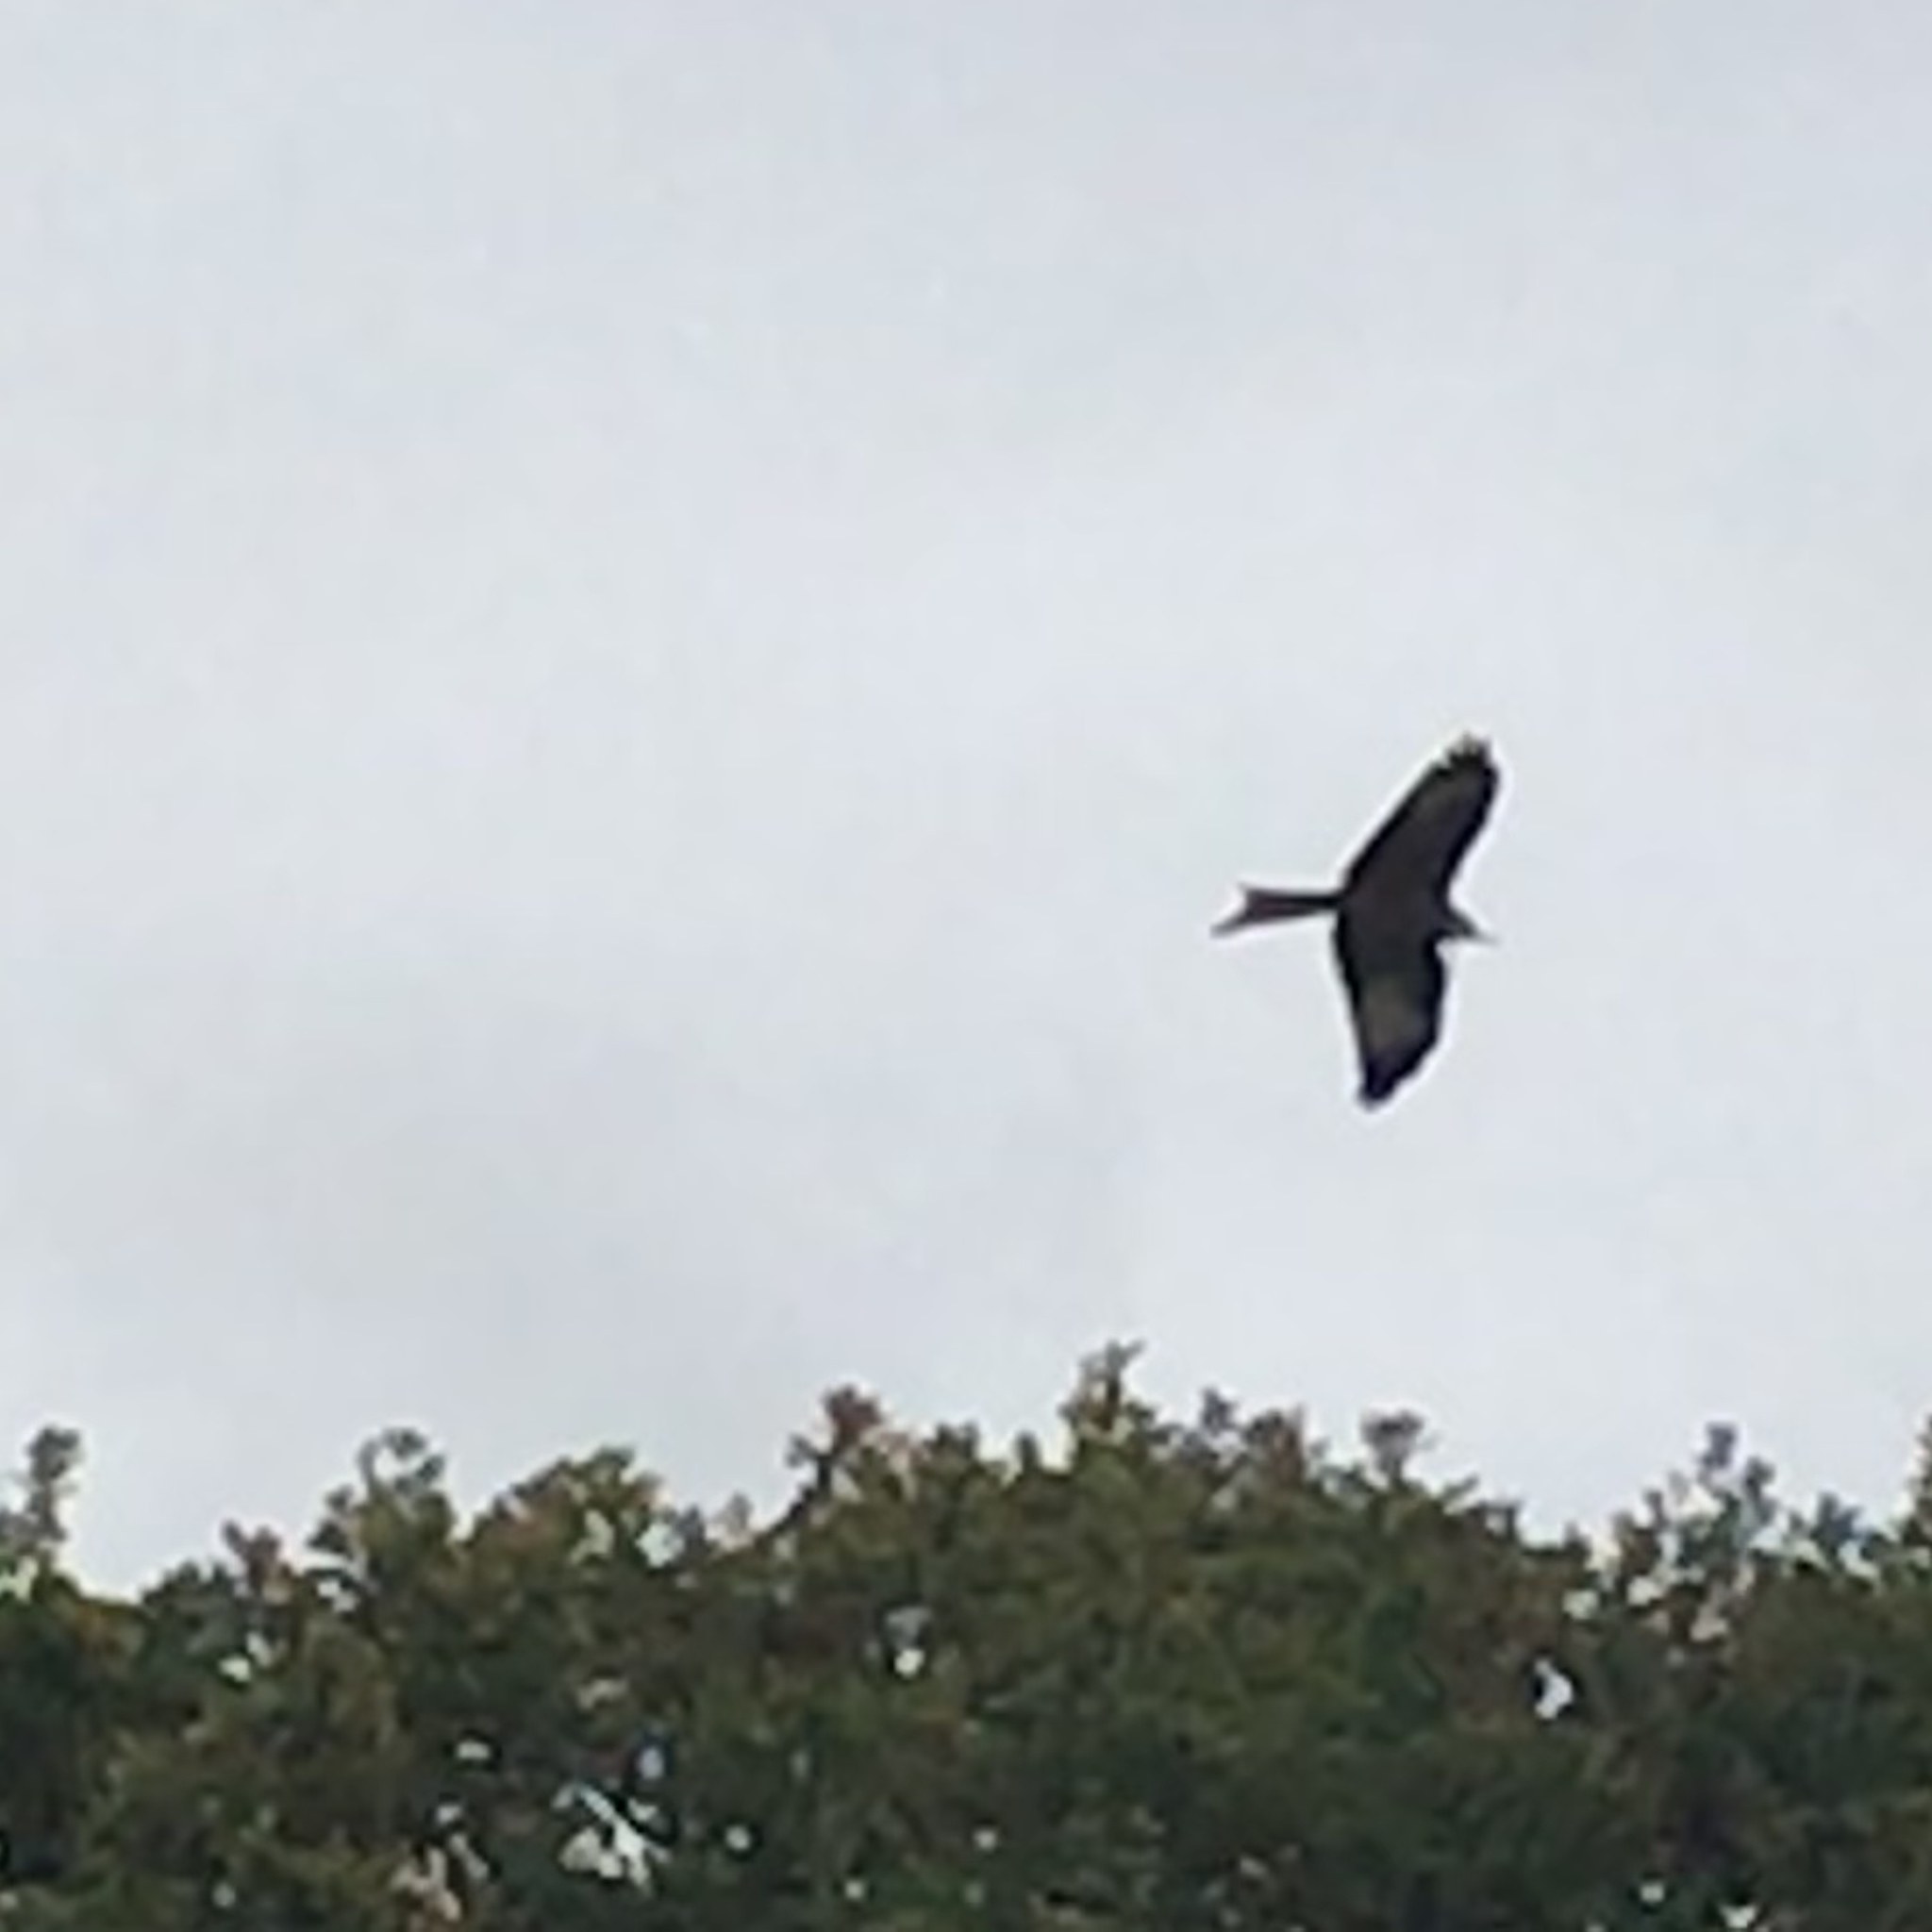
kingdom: Animalia
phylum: Chordata
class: Aves
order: Accipitriformes
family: Accipitridae
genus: Milvus
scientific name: Milvus milvus
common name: Red kite
